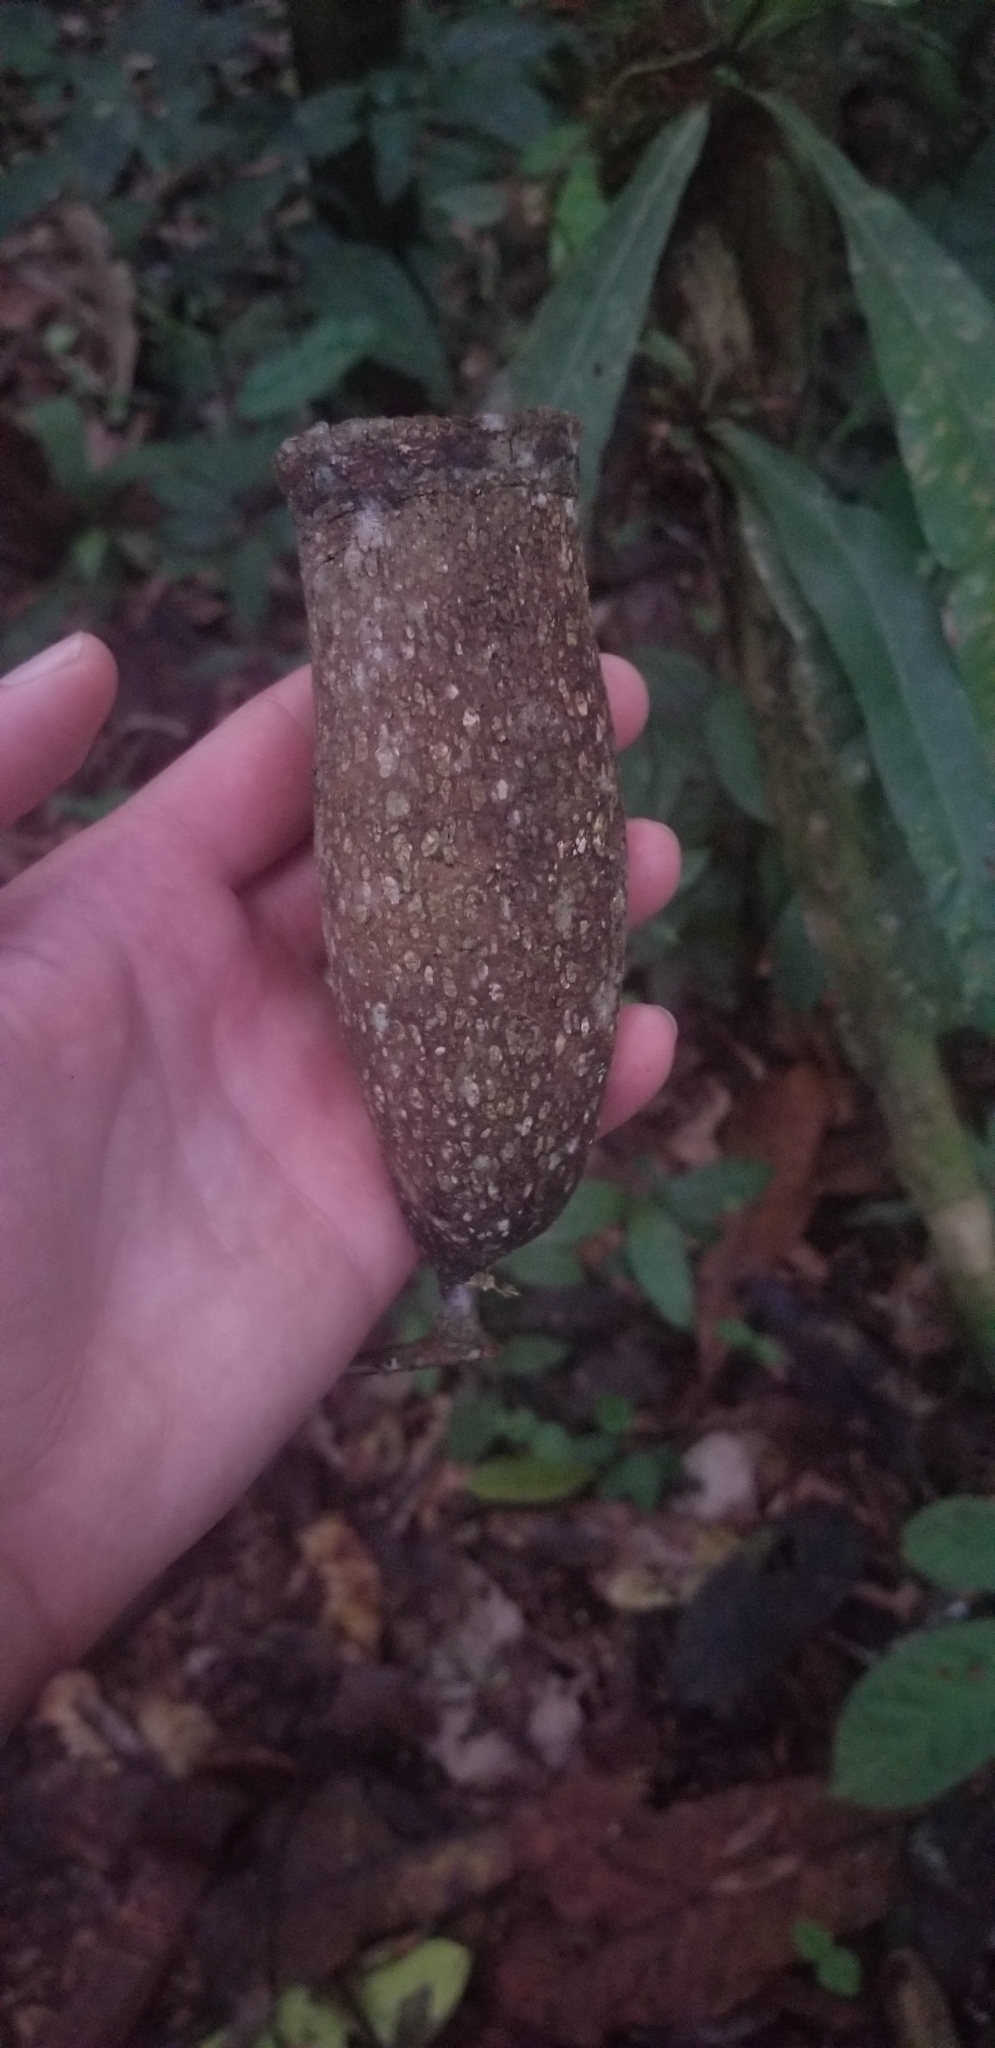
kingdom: Plantae
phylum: Tracheophyta
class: Magnoliopsida
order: Ericales
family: Lecythidaceae
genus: Couratari
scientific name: Couratari guianensis
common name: Fine-leaf wadara
